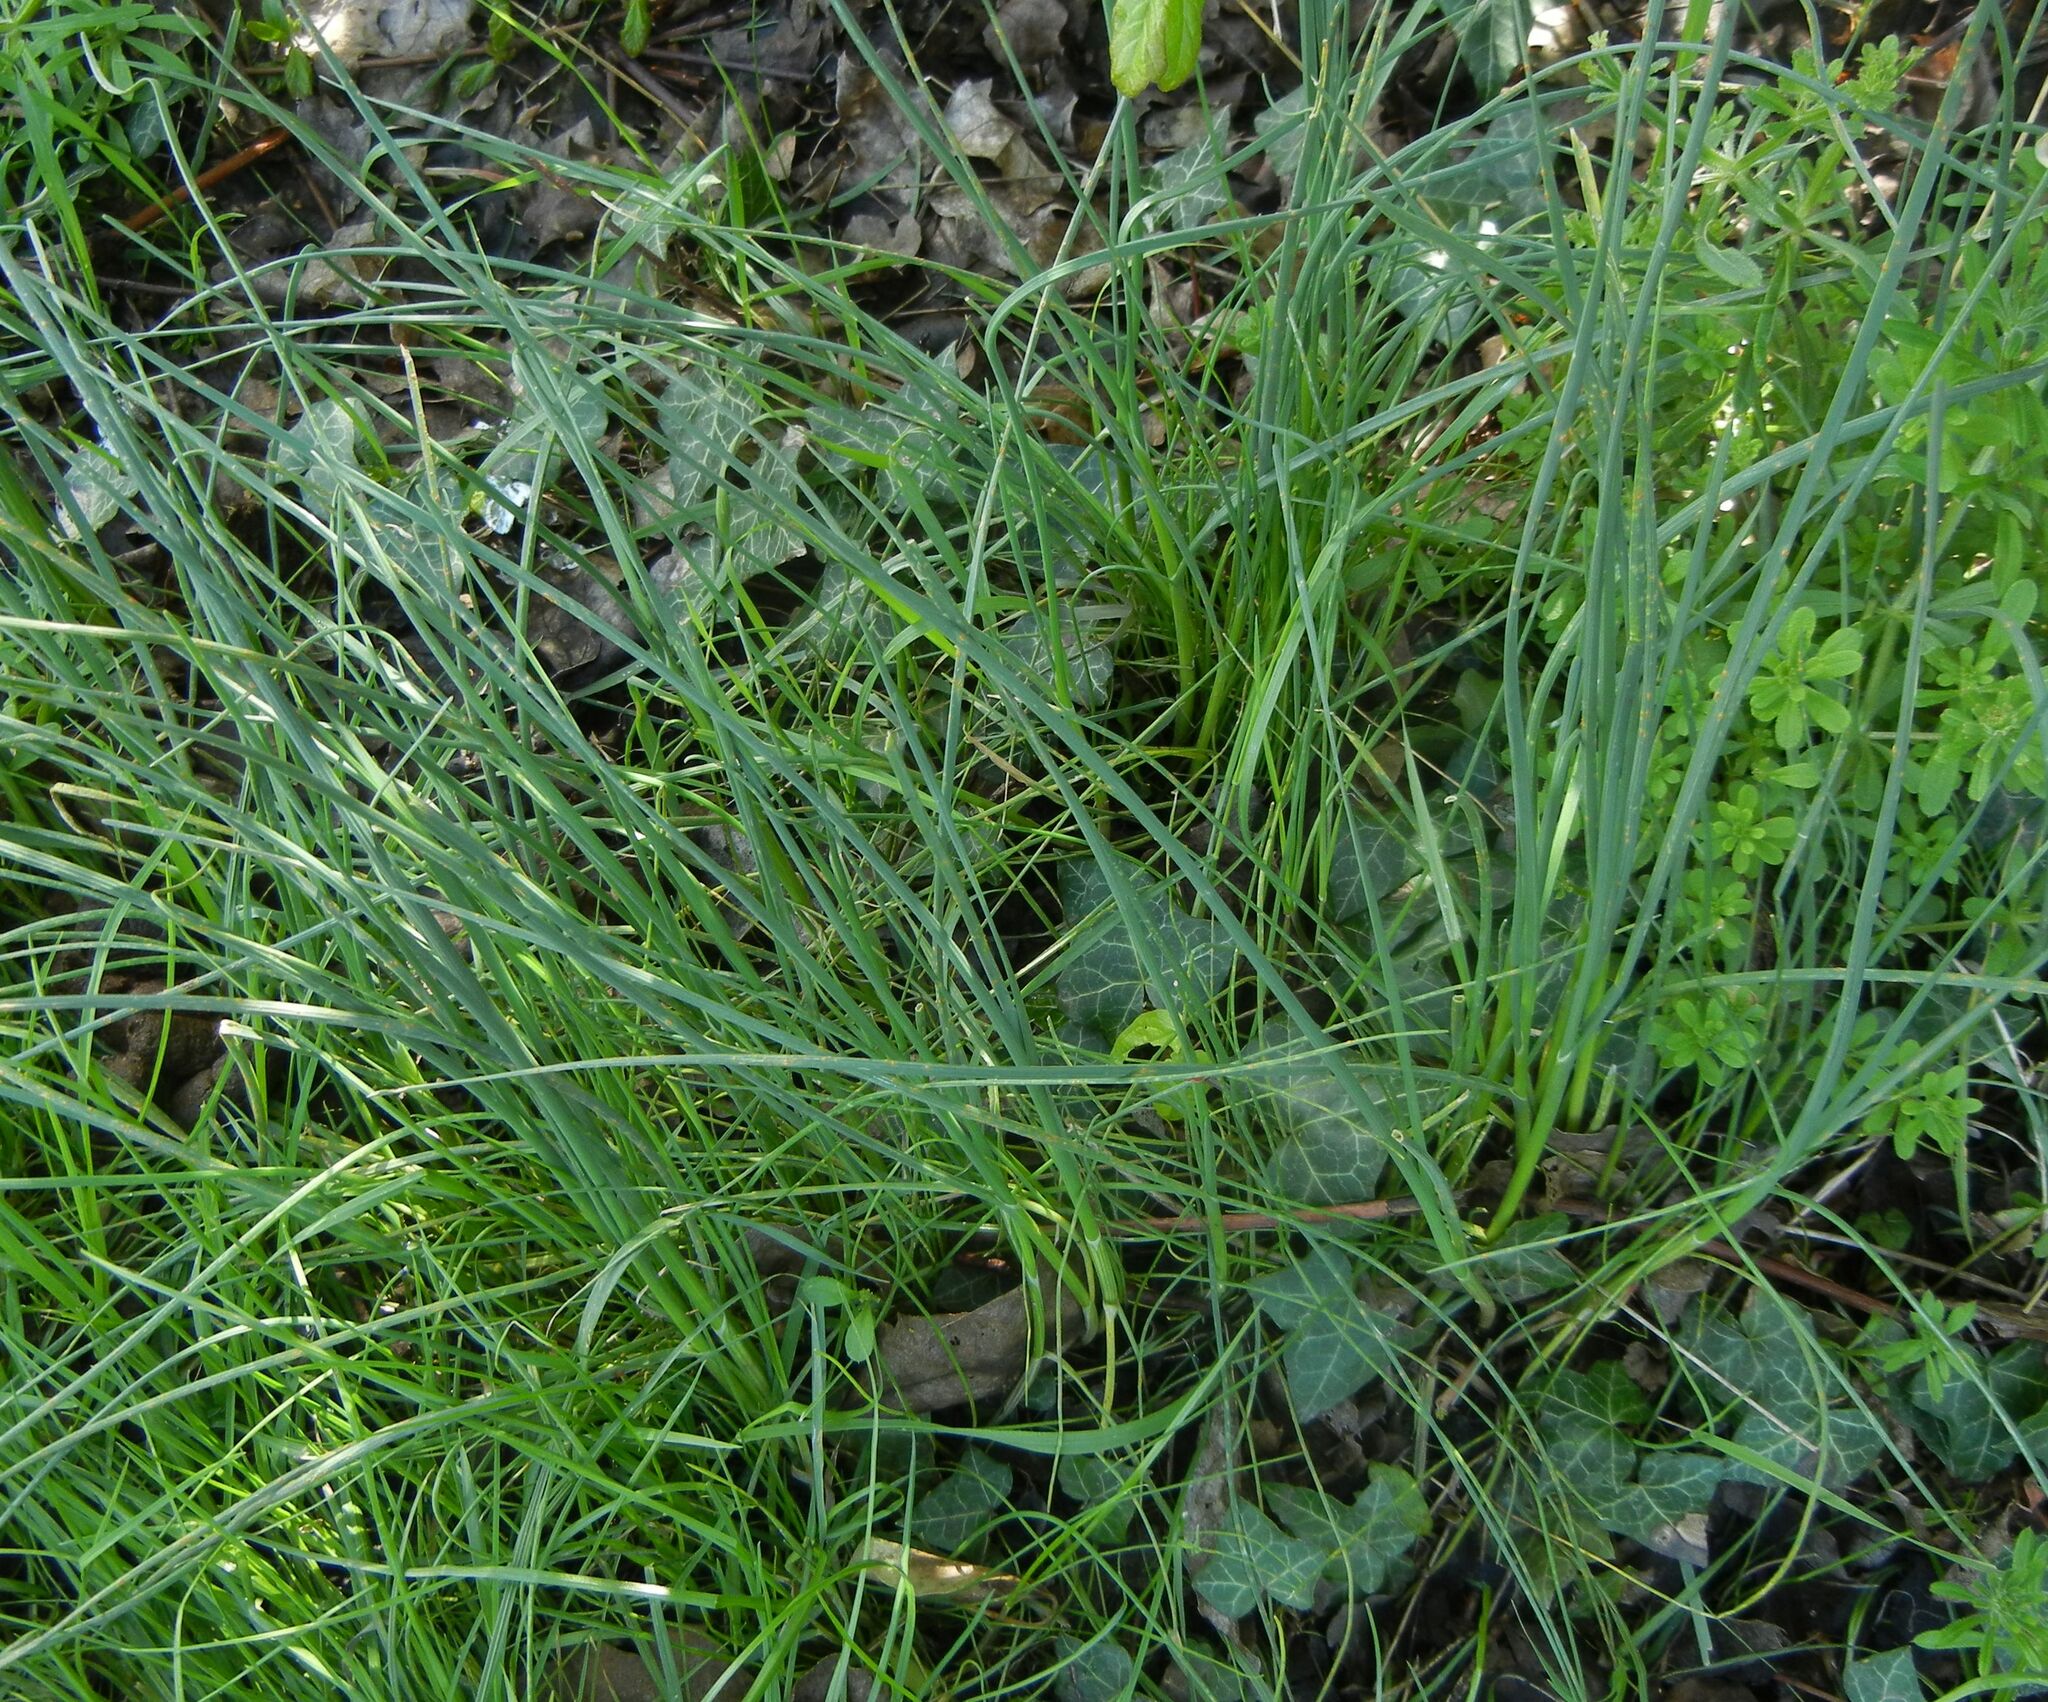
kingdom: Plantae
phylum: Tracheophyta
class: Liliopsida
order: Asparagales
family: Amaryllidaceae
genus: Allium
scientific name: Allium vineale
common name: Crow garlic
